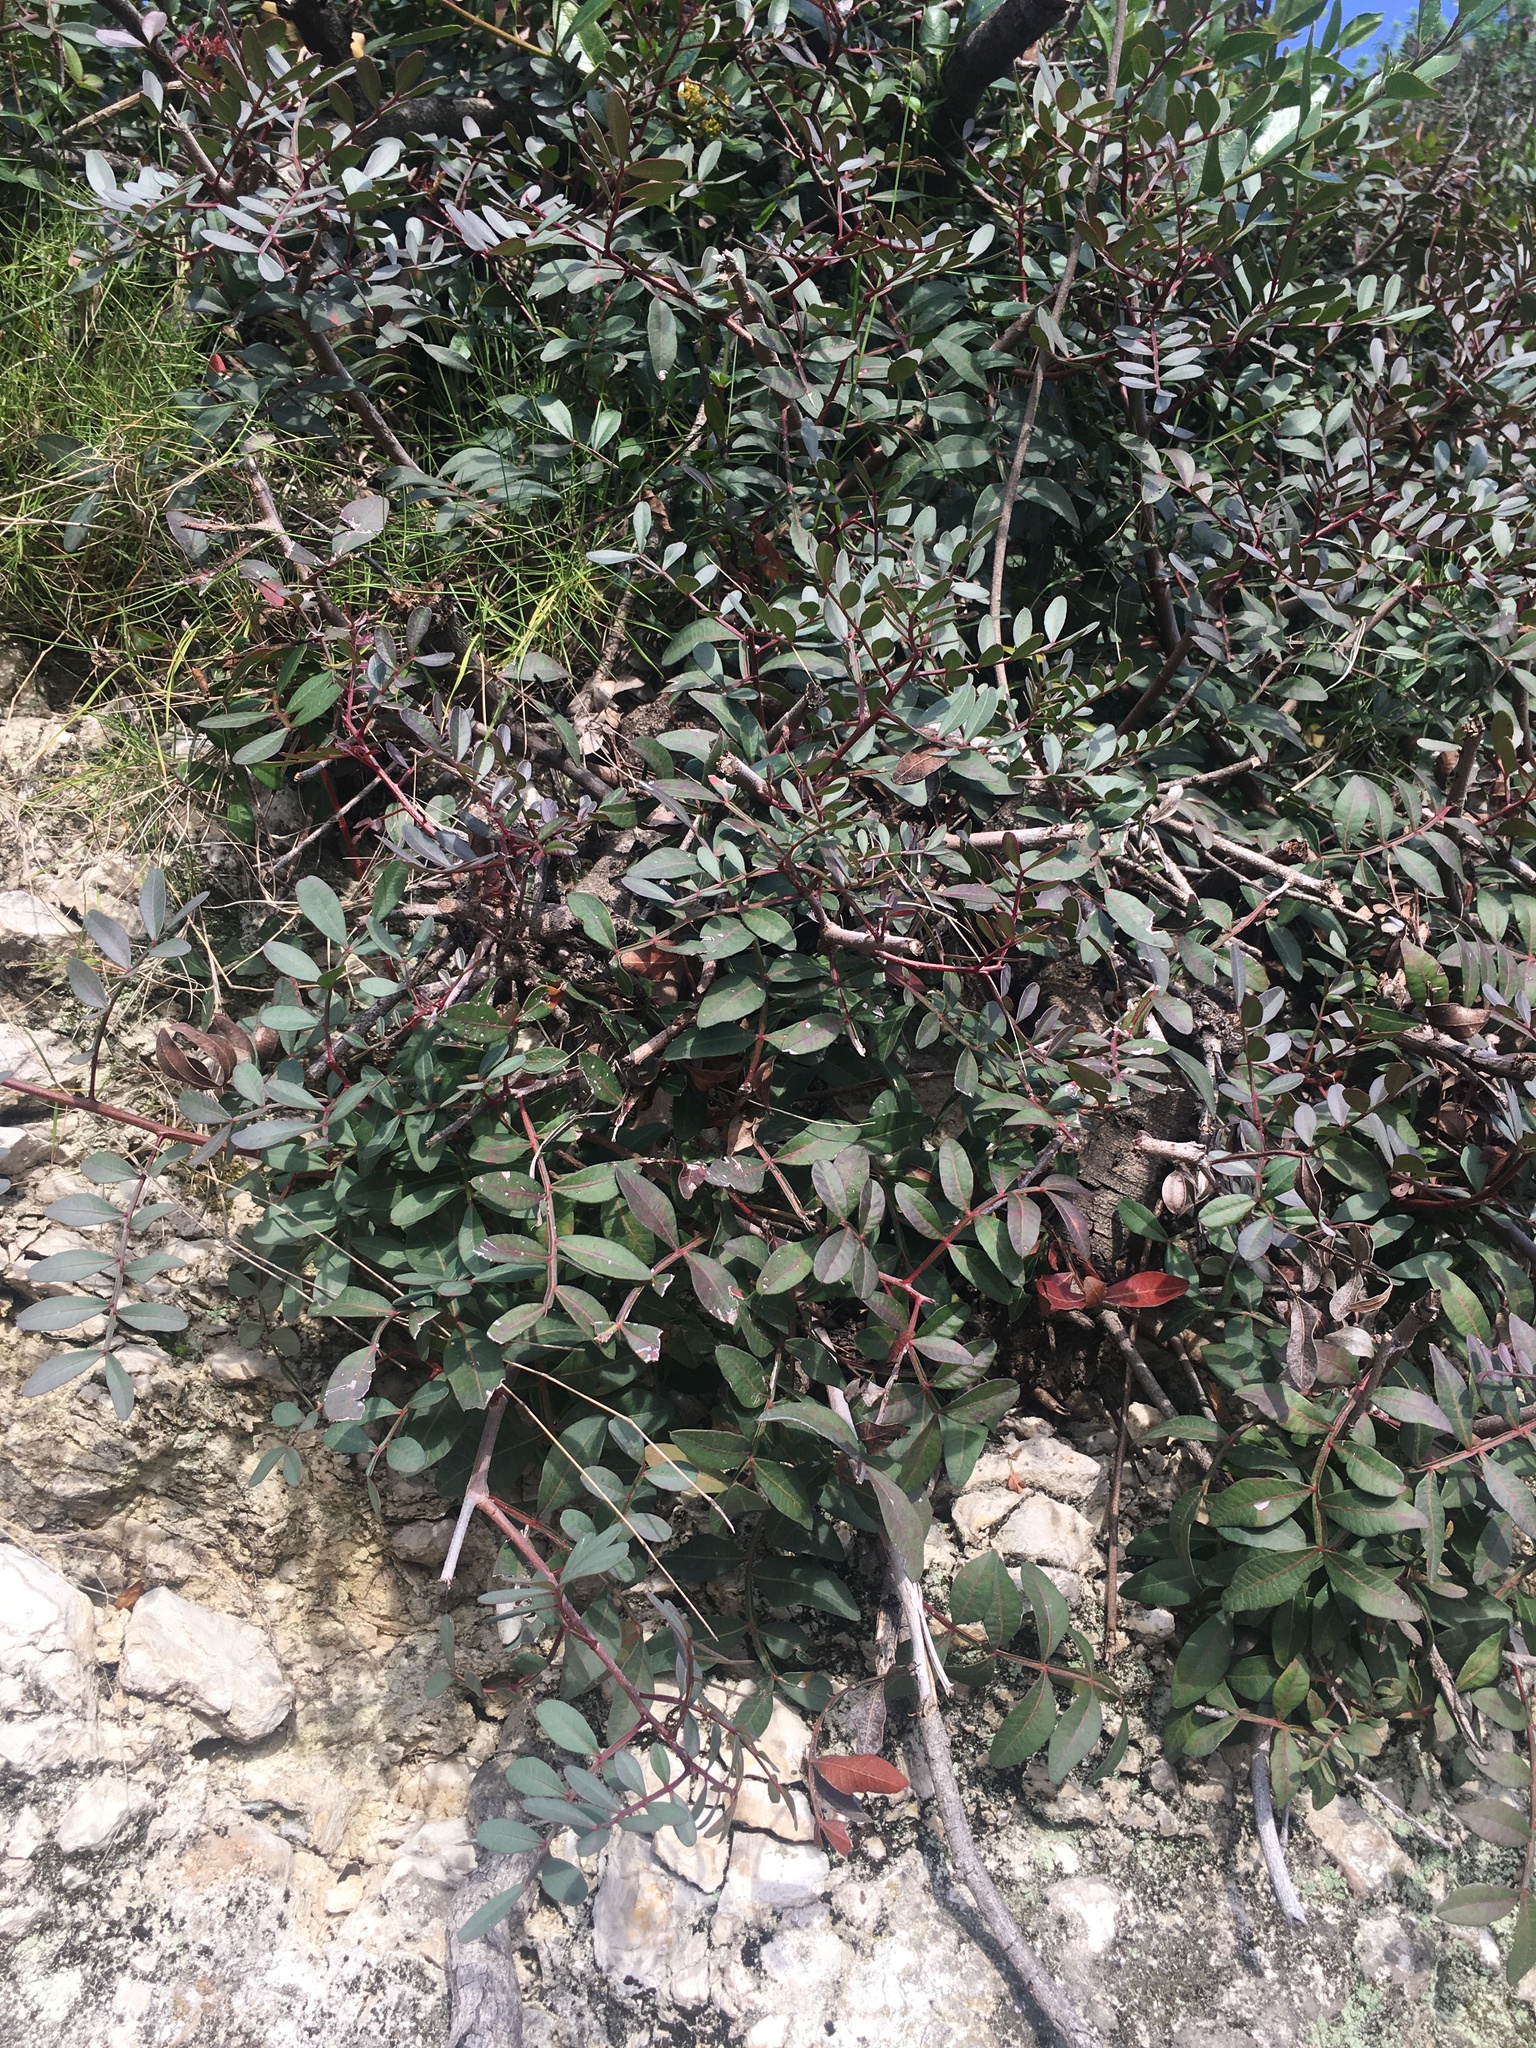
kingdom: Plantae
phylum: Tracheophyta
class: Magnoliopsida
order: Sapindales
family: Anacardiaceae
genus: Pistacia
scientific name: Pistacia lentiscus
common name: Lentisk
